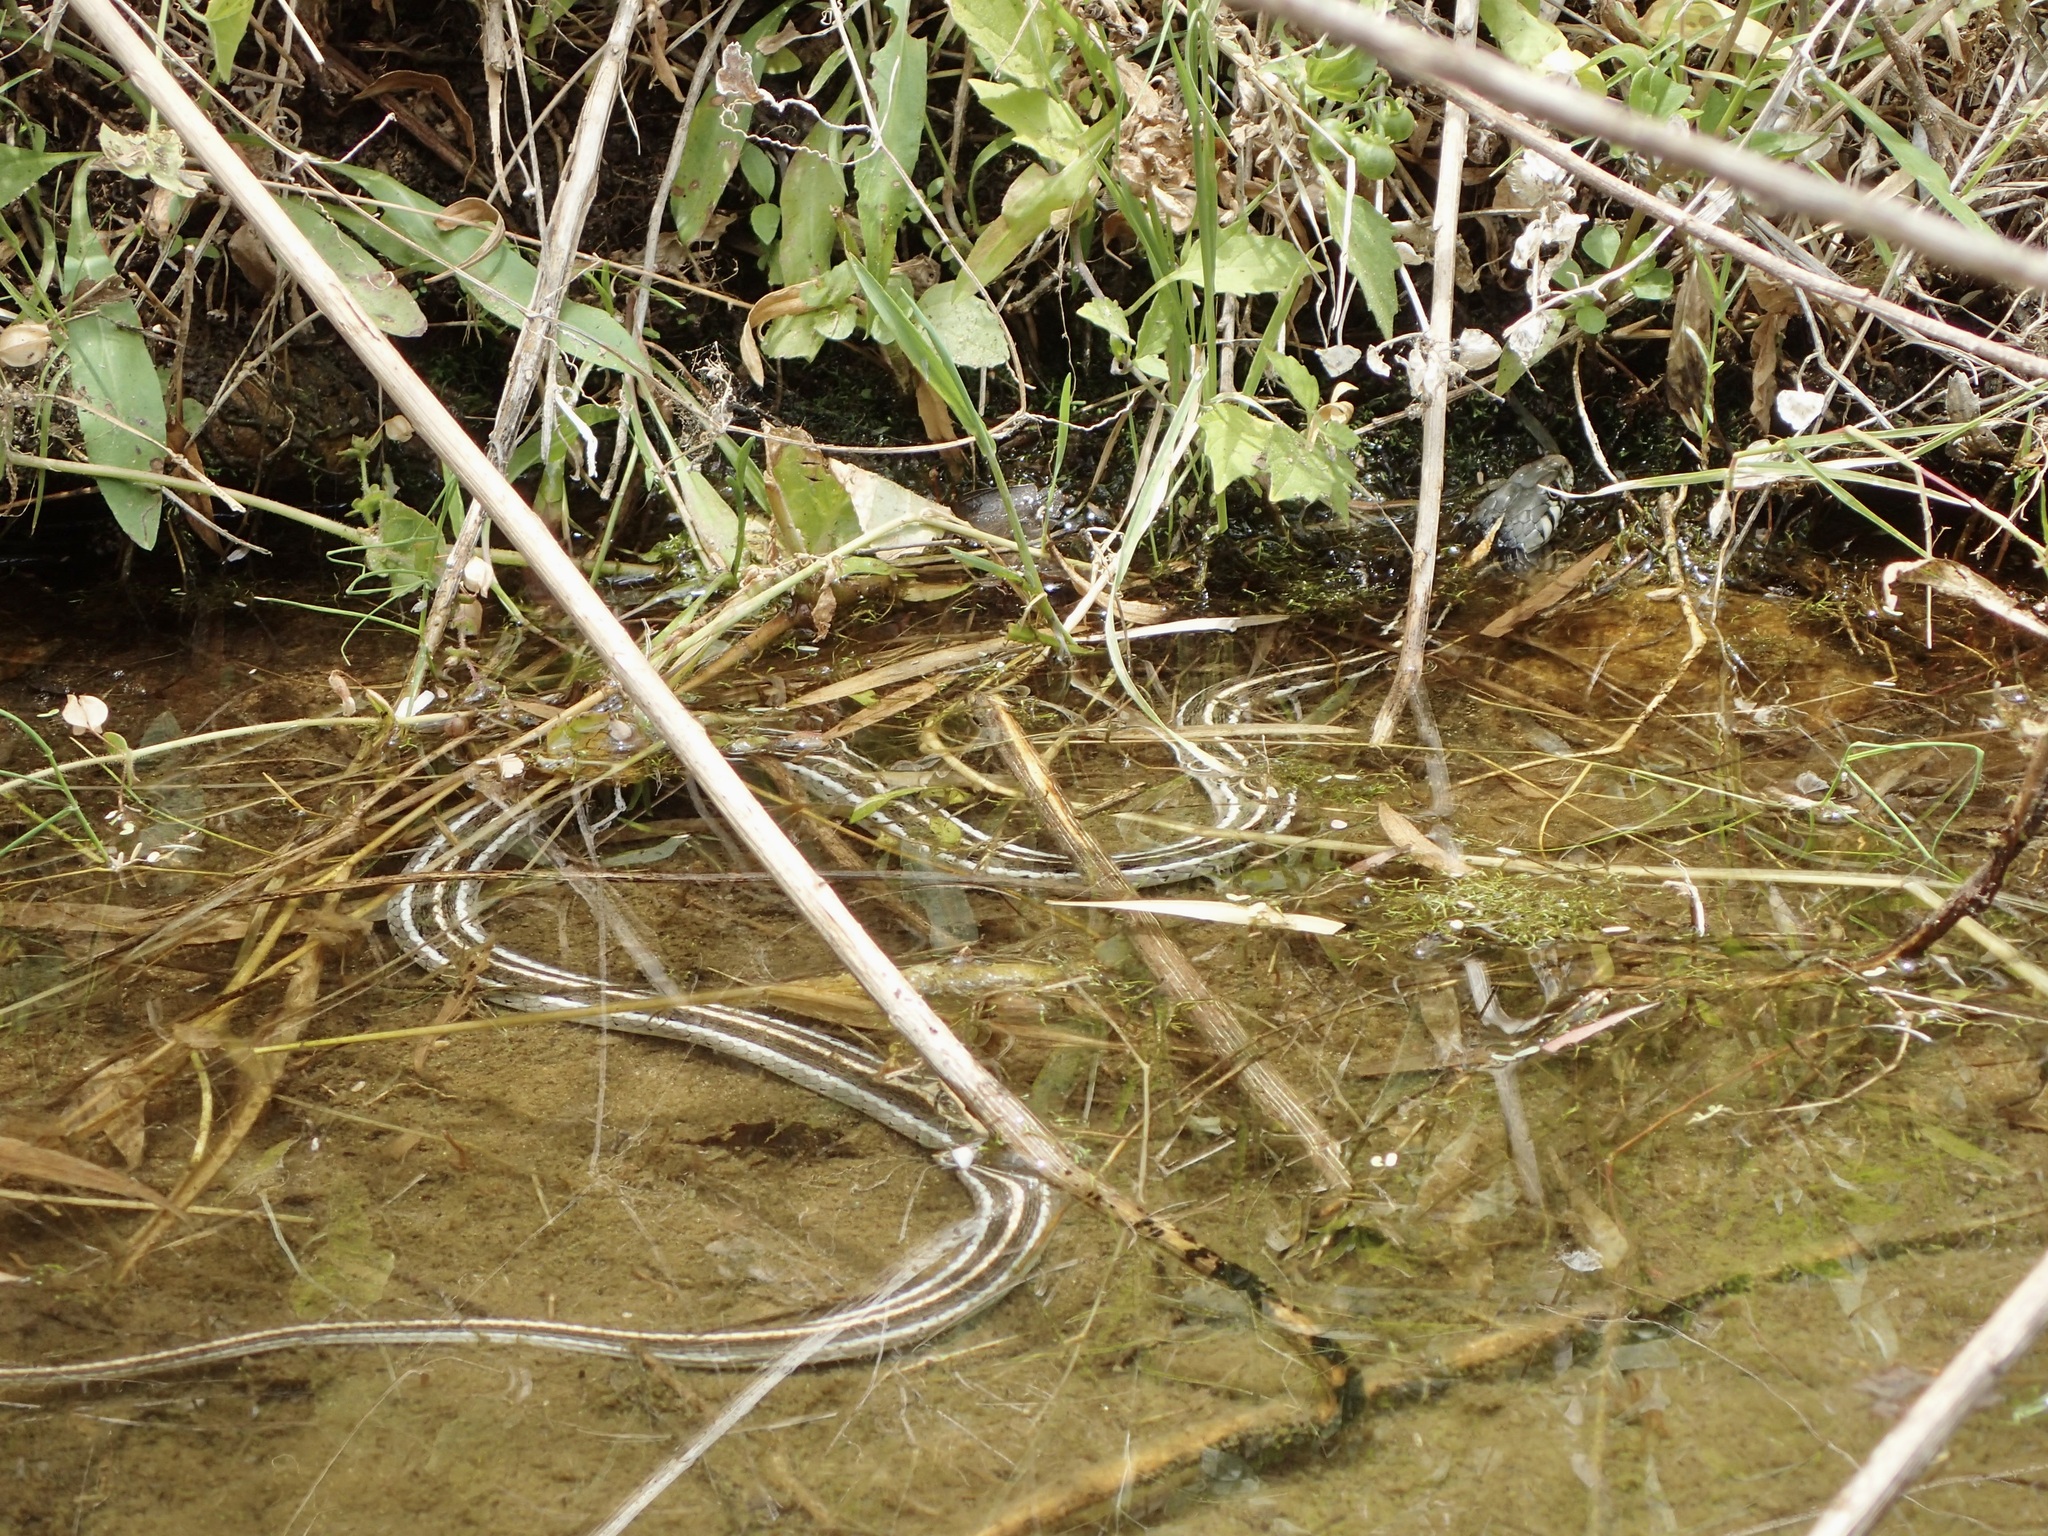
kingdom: Animalia
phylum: Chordata
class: Squamata
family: Colubridae
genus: Thamnophis
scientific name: Thamnophis cyrtopsis
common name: Black-necked gartersnake
